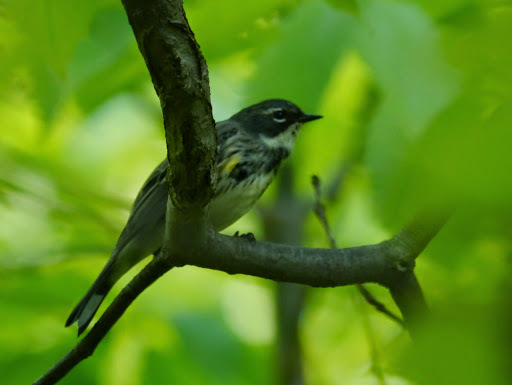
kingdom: Animalia
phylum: Chordata
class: Aves
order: Passeriformes
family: Parulidae
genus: Setophaga
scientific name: Setophaga coronata
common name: Myrtle warbler
